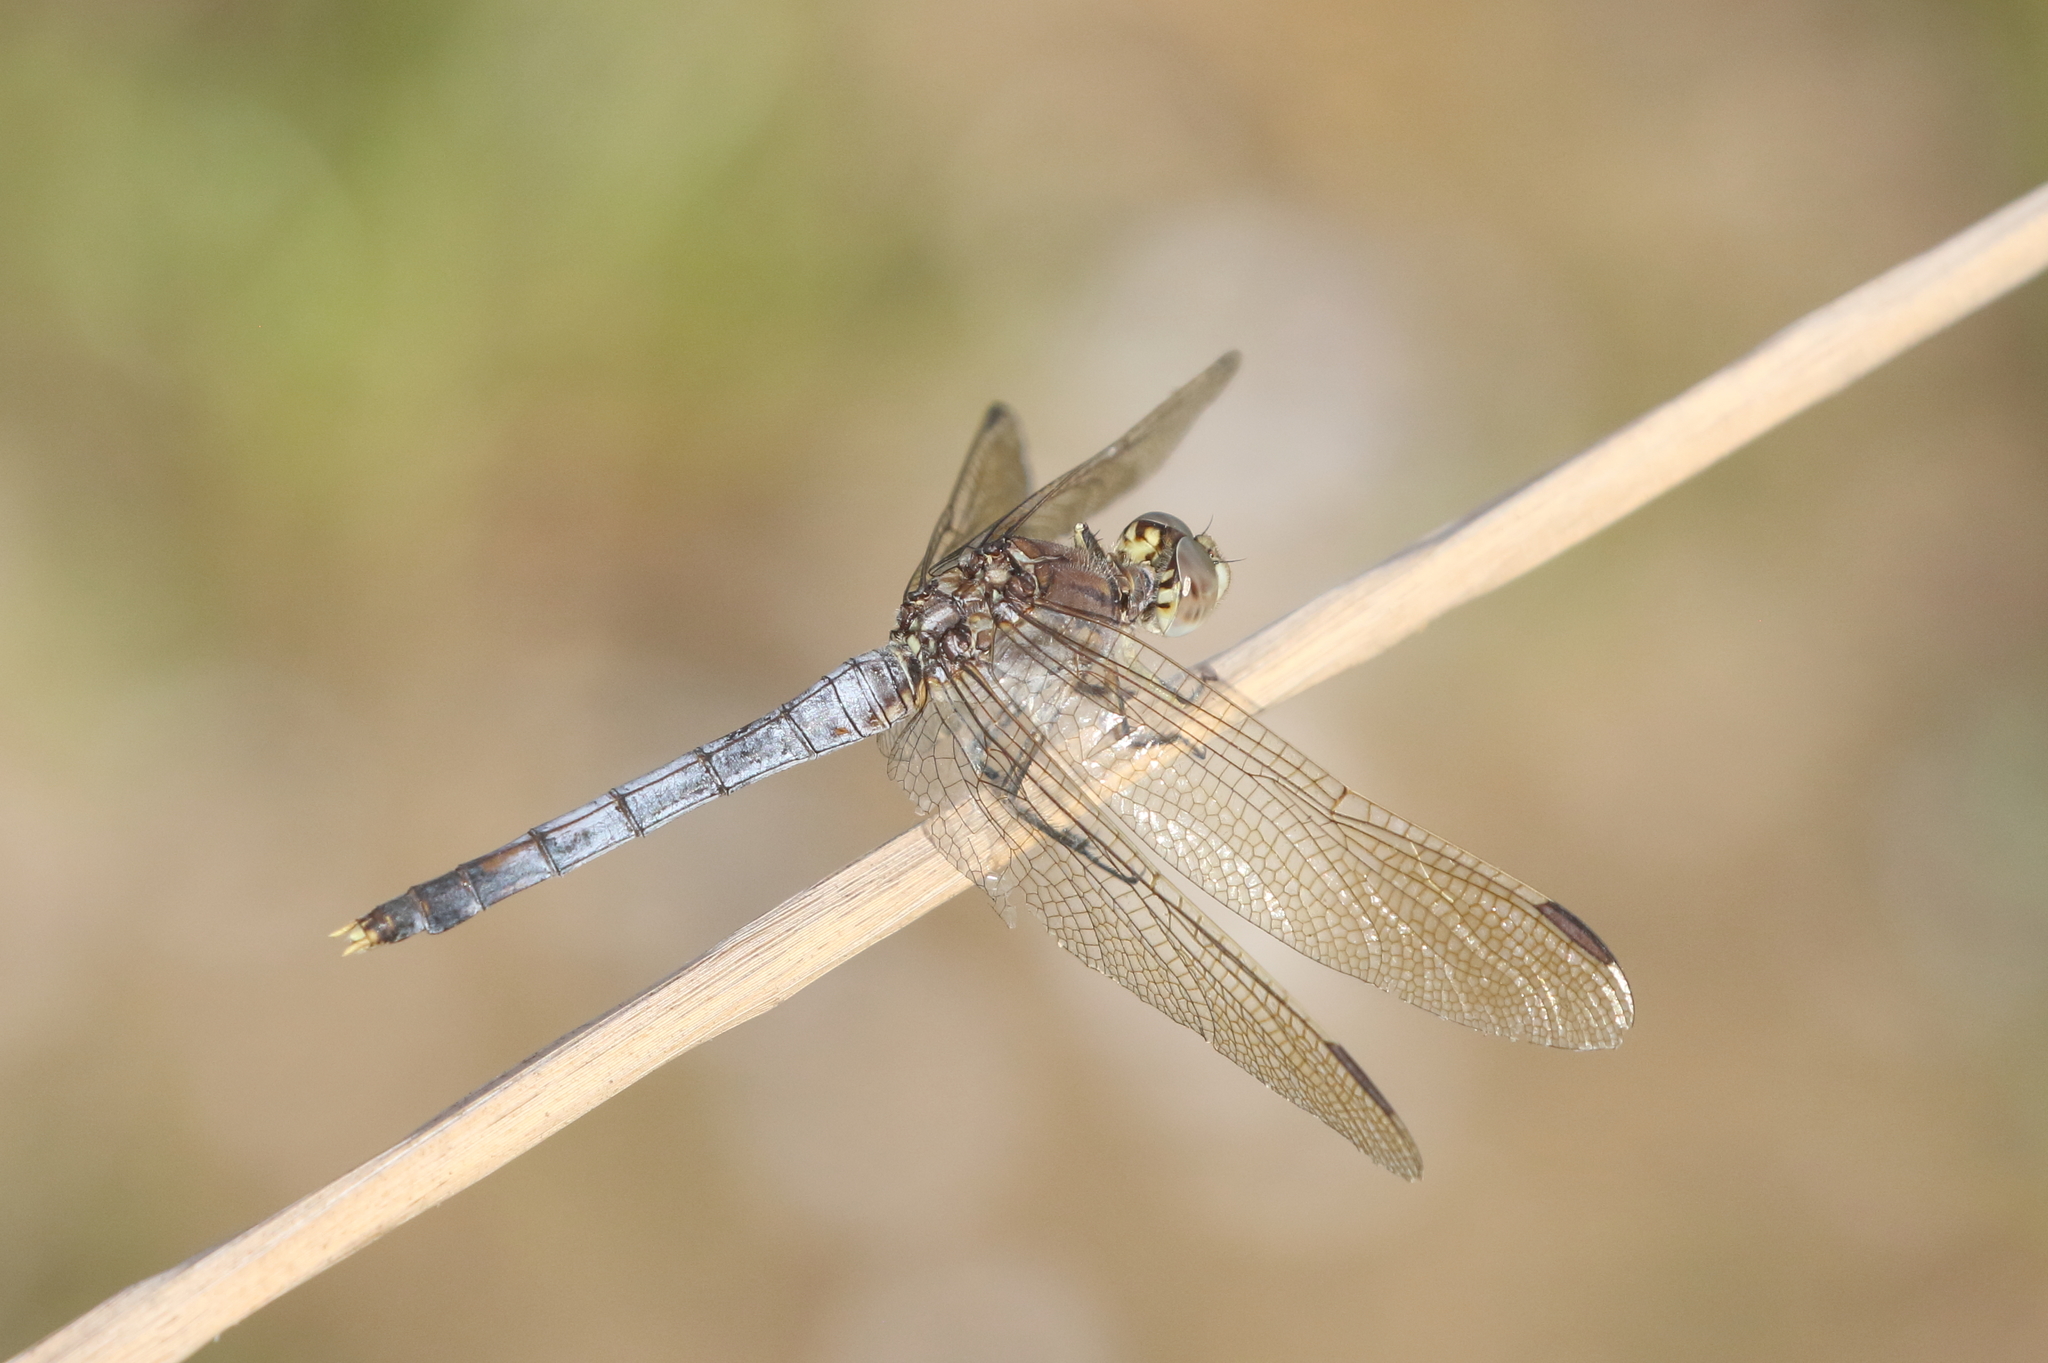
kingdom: Animalia
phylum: Arthropoda
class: Insecta
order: Odonata
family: Libellulidae
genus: Orthetrum
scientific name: Orthetrum caledonicum
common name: Blue skimmer
